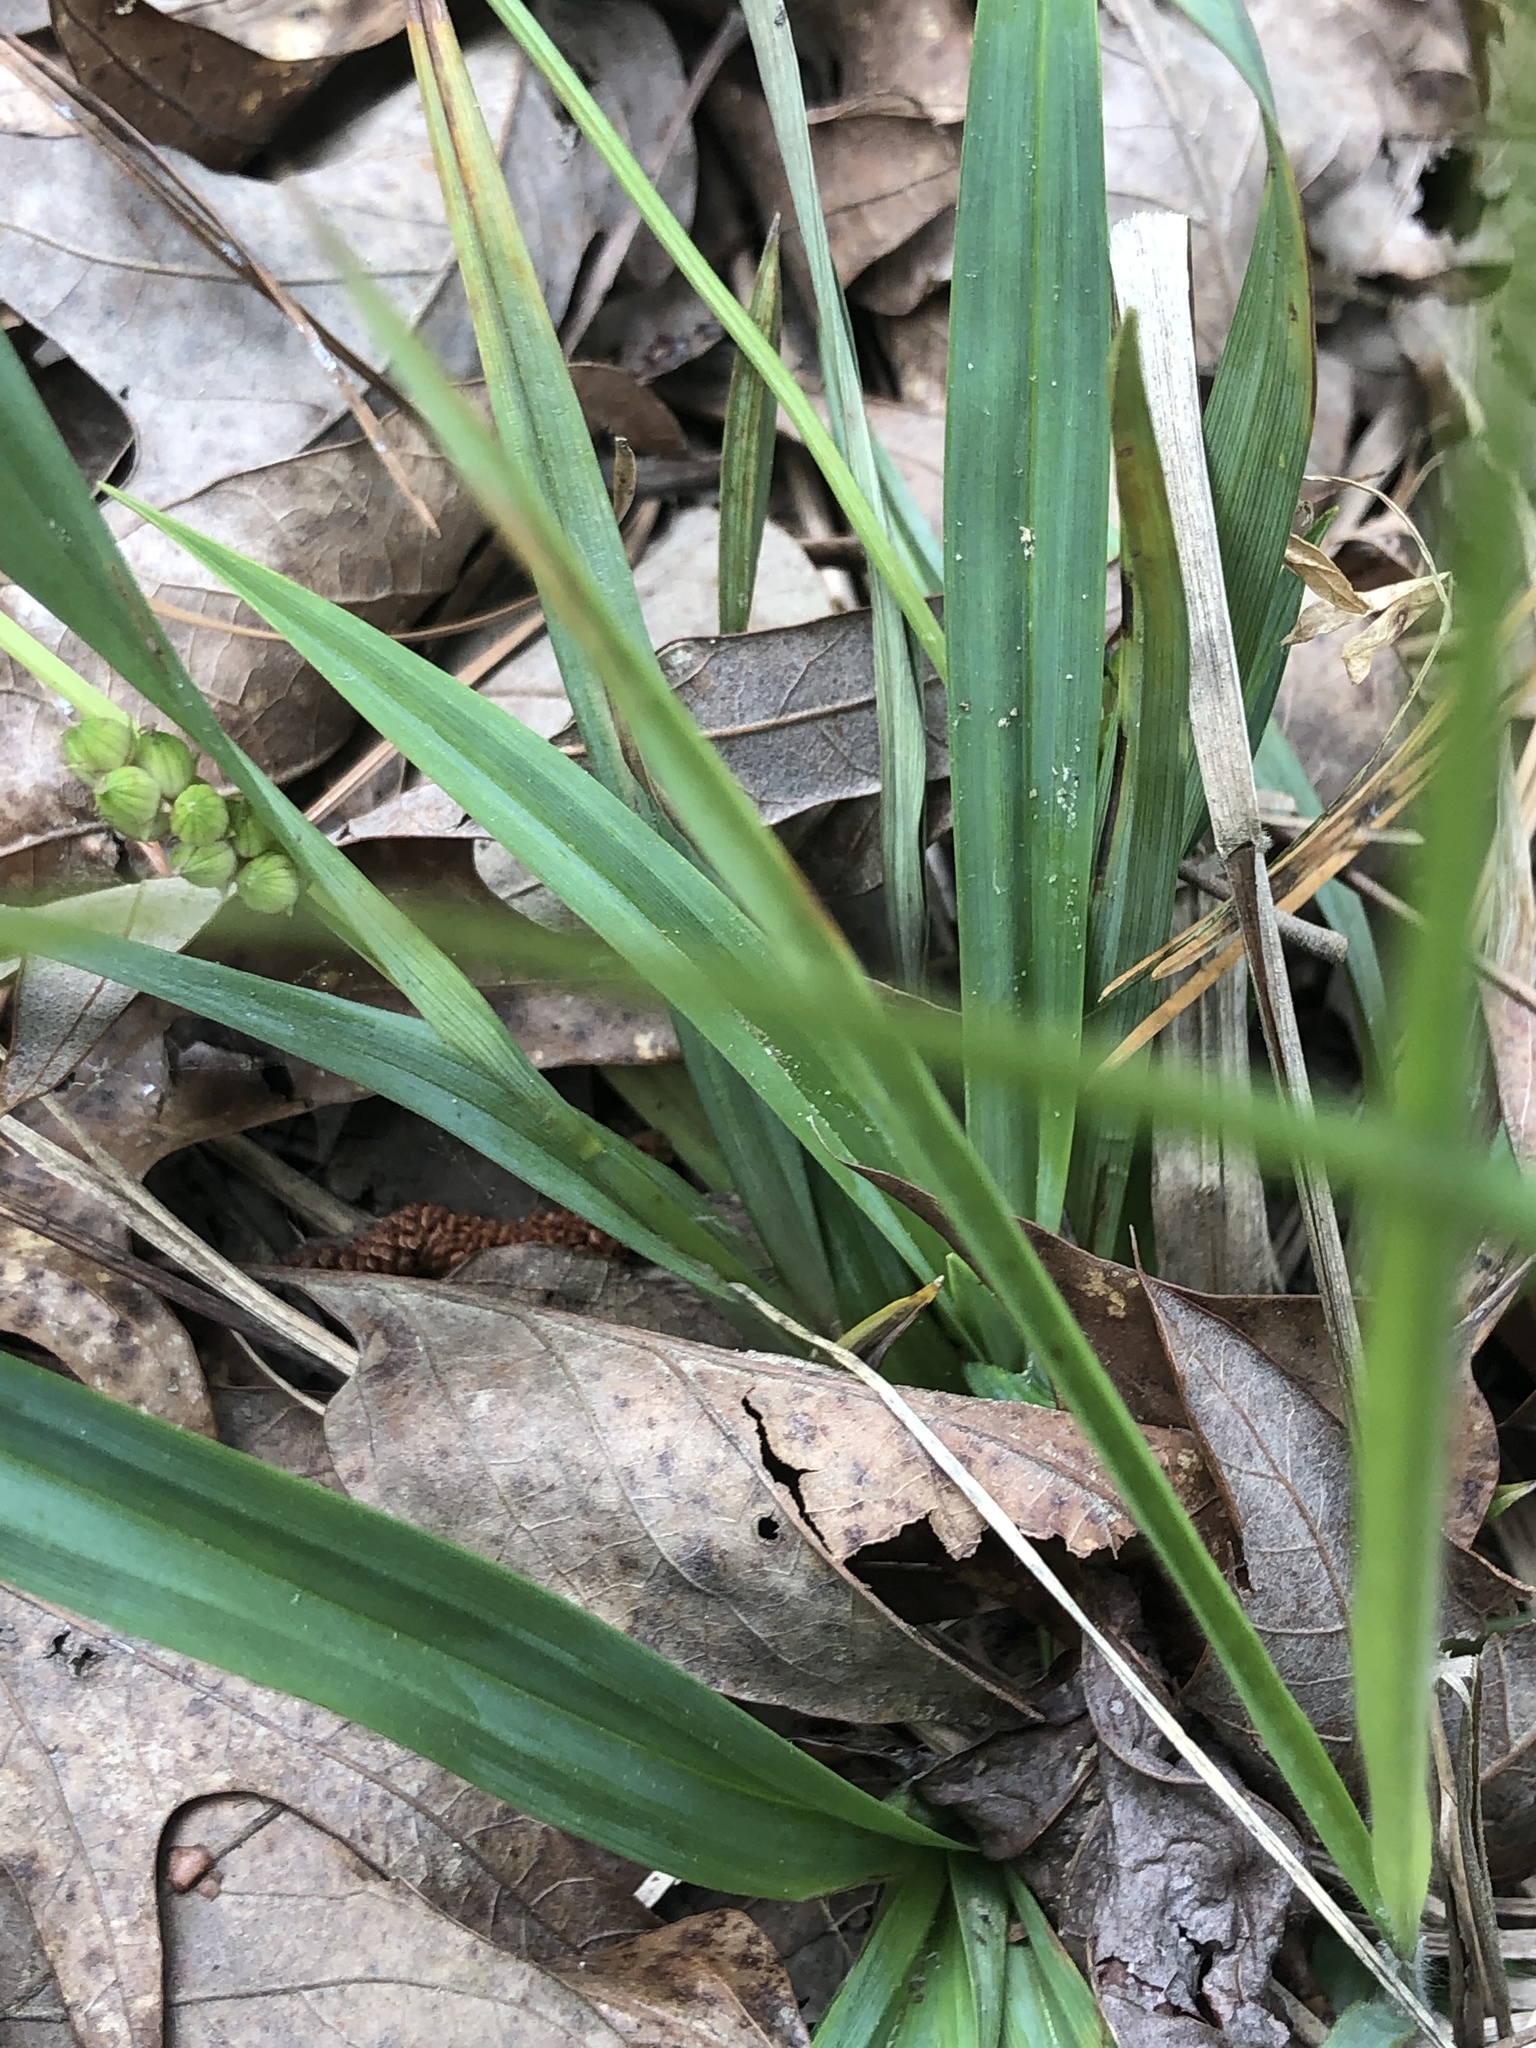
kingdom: Plantae
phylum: Tracheophyta
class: Liliopsida
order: Poales
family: Cyperaceae
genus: Carex
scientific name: Carex glaucodea
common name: Blue sedge
